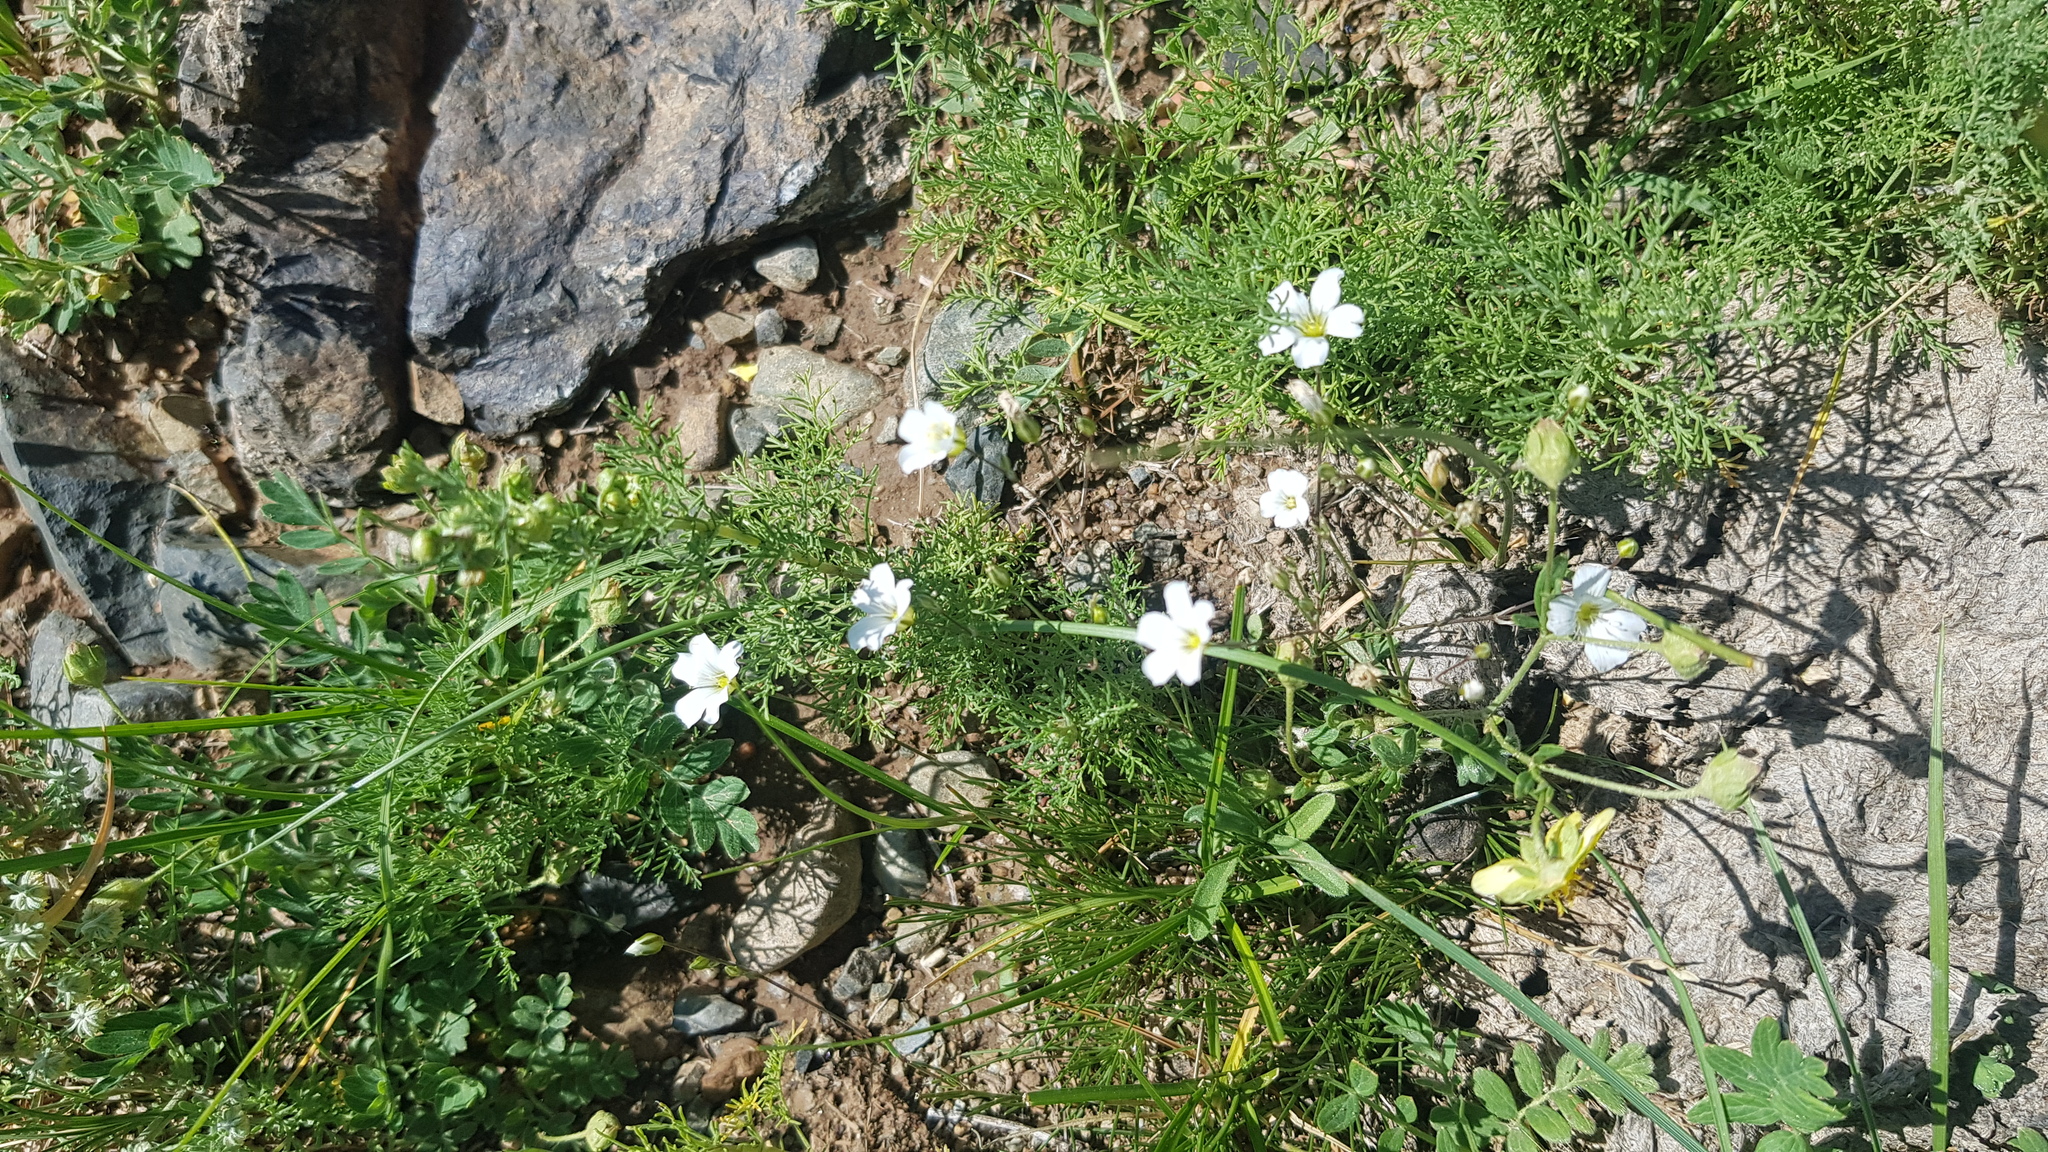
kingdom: Plantae
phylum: Tracheophyta
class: Magnoliopsida
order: Caryophyllales
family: Caryophyllaceae
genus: Eremogone
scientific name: Eremogone capillaris
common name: Slender mountain sandwort
